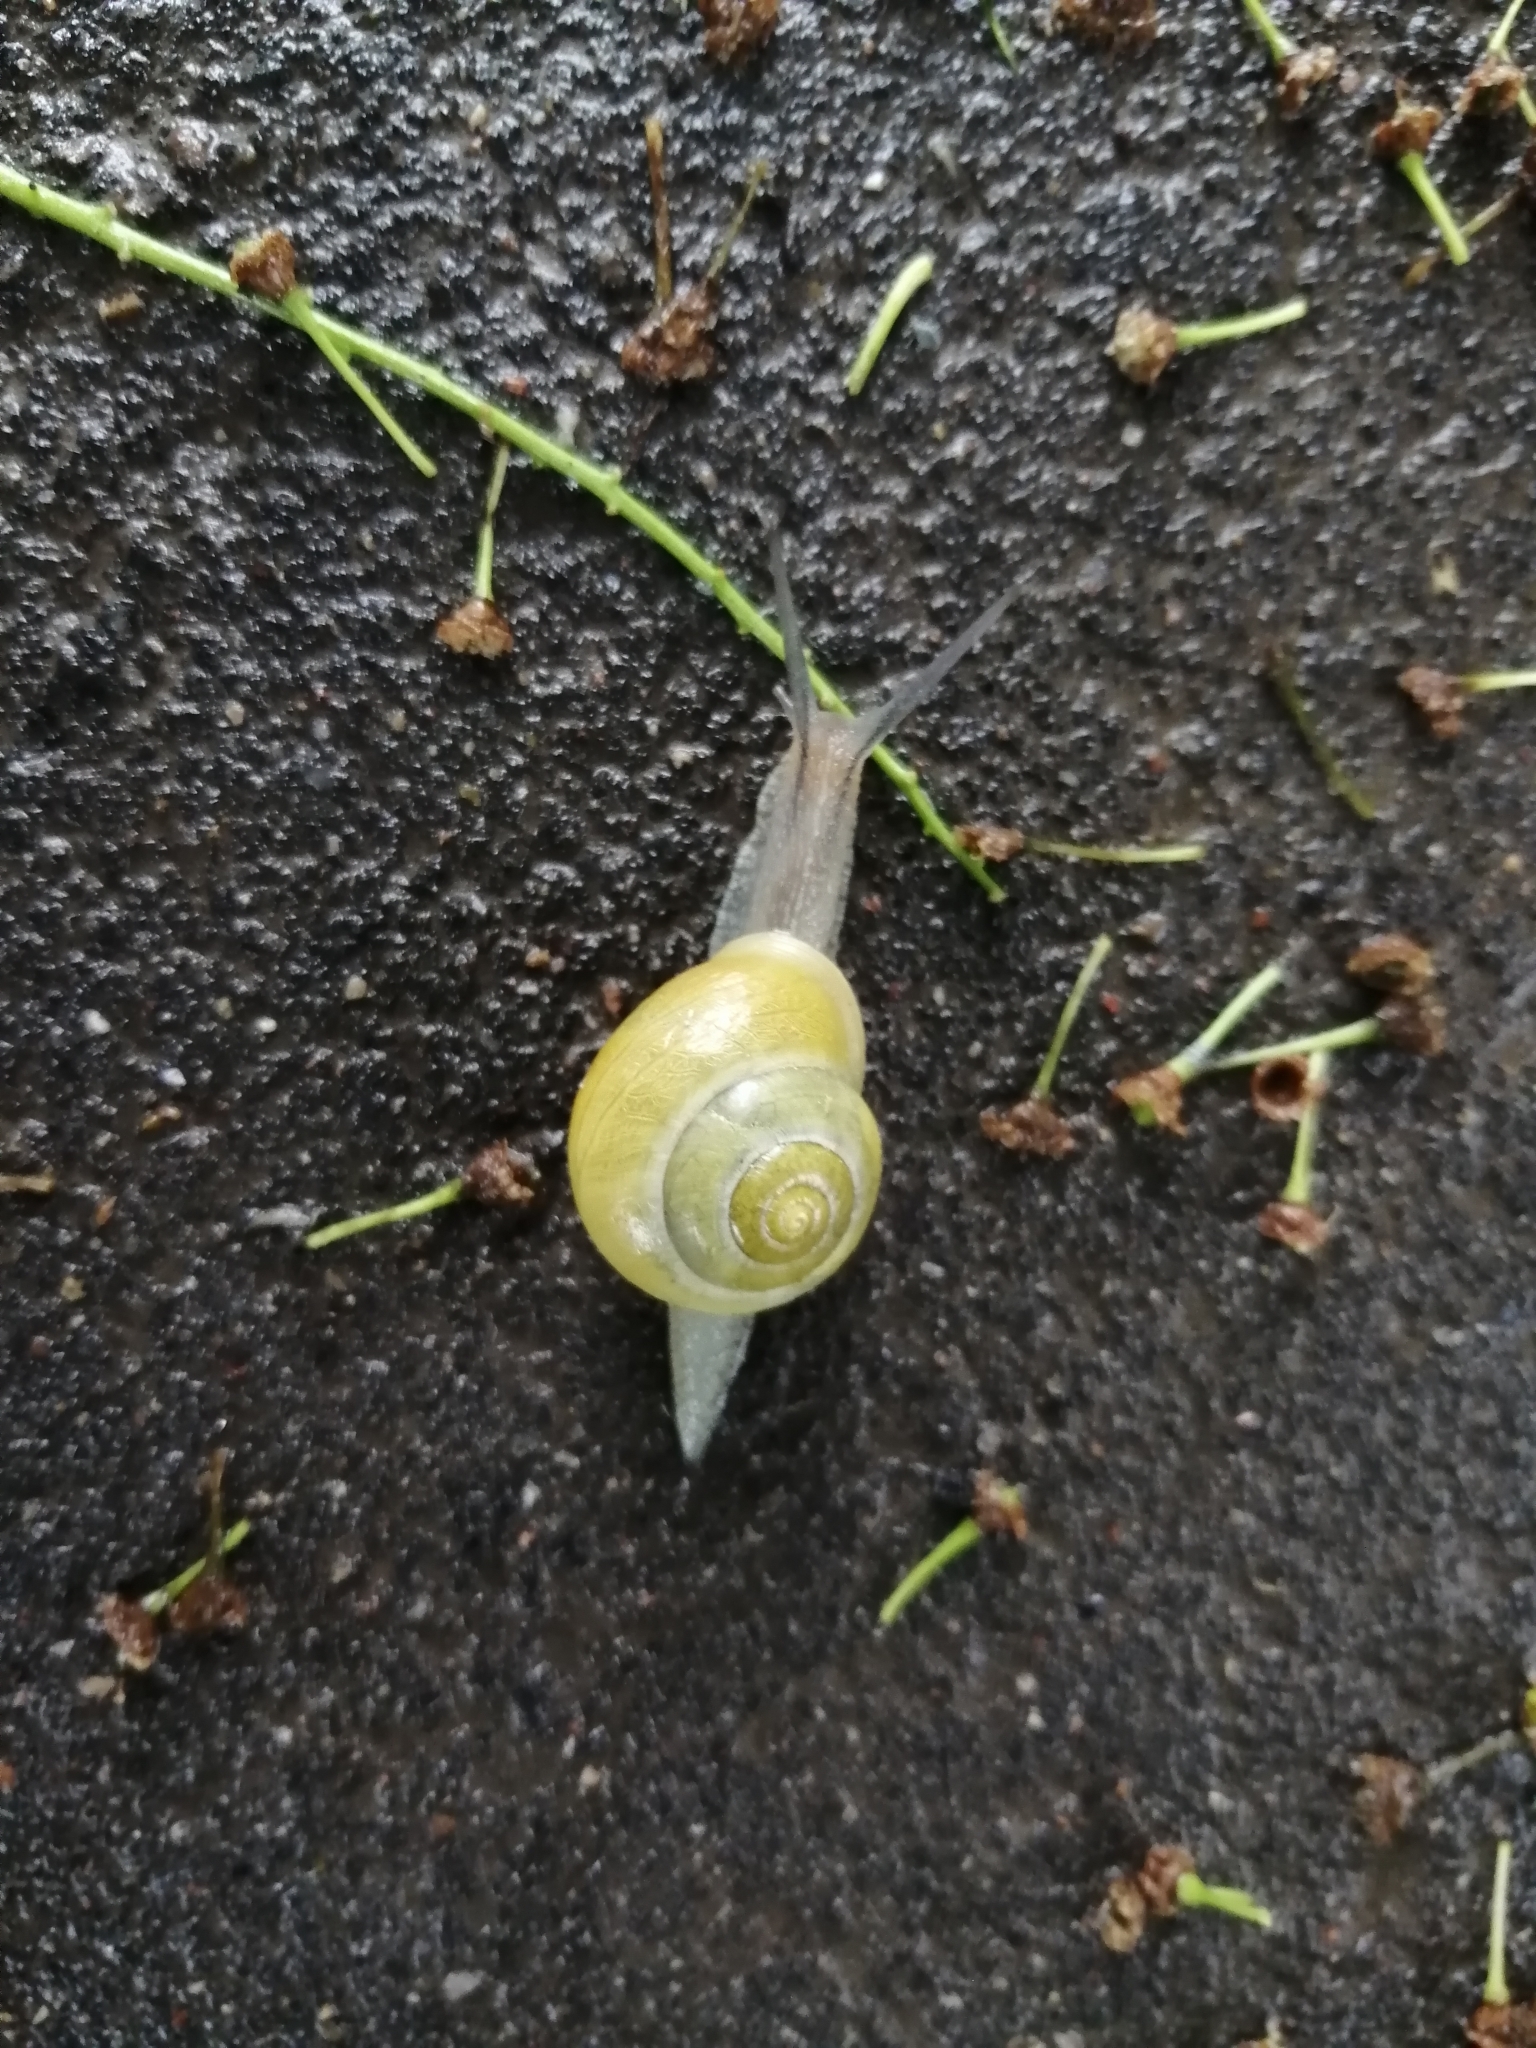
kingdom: Animalia
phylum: Mollusca
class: Gastropoda
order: Stylommatophora
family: Helicidae
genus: Cepaea
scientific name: Cepaea hortensis
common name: White-lip gardensnail
